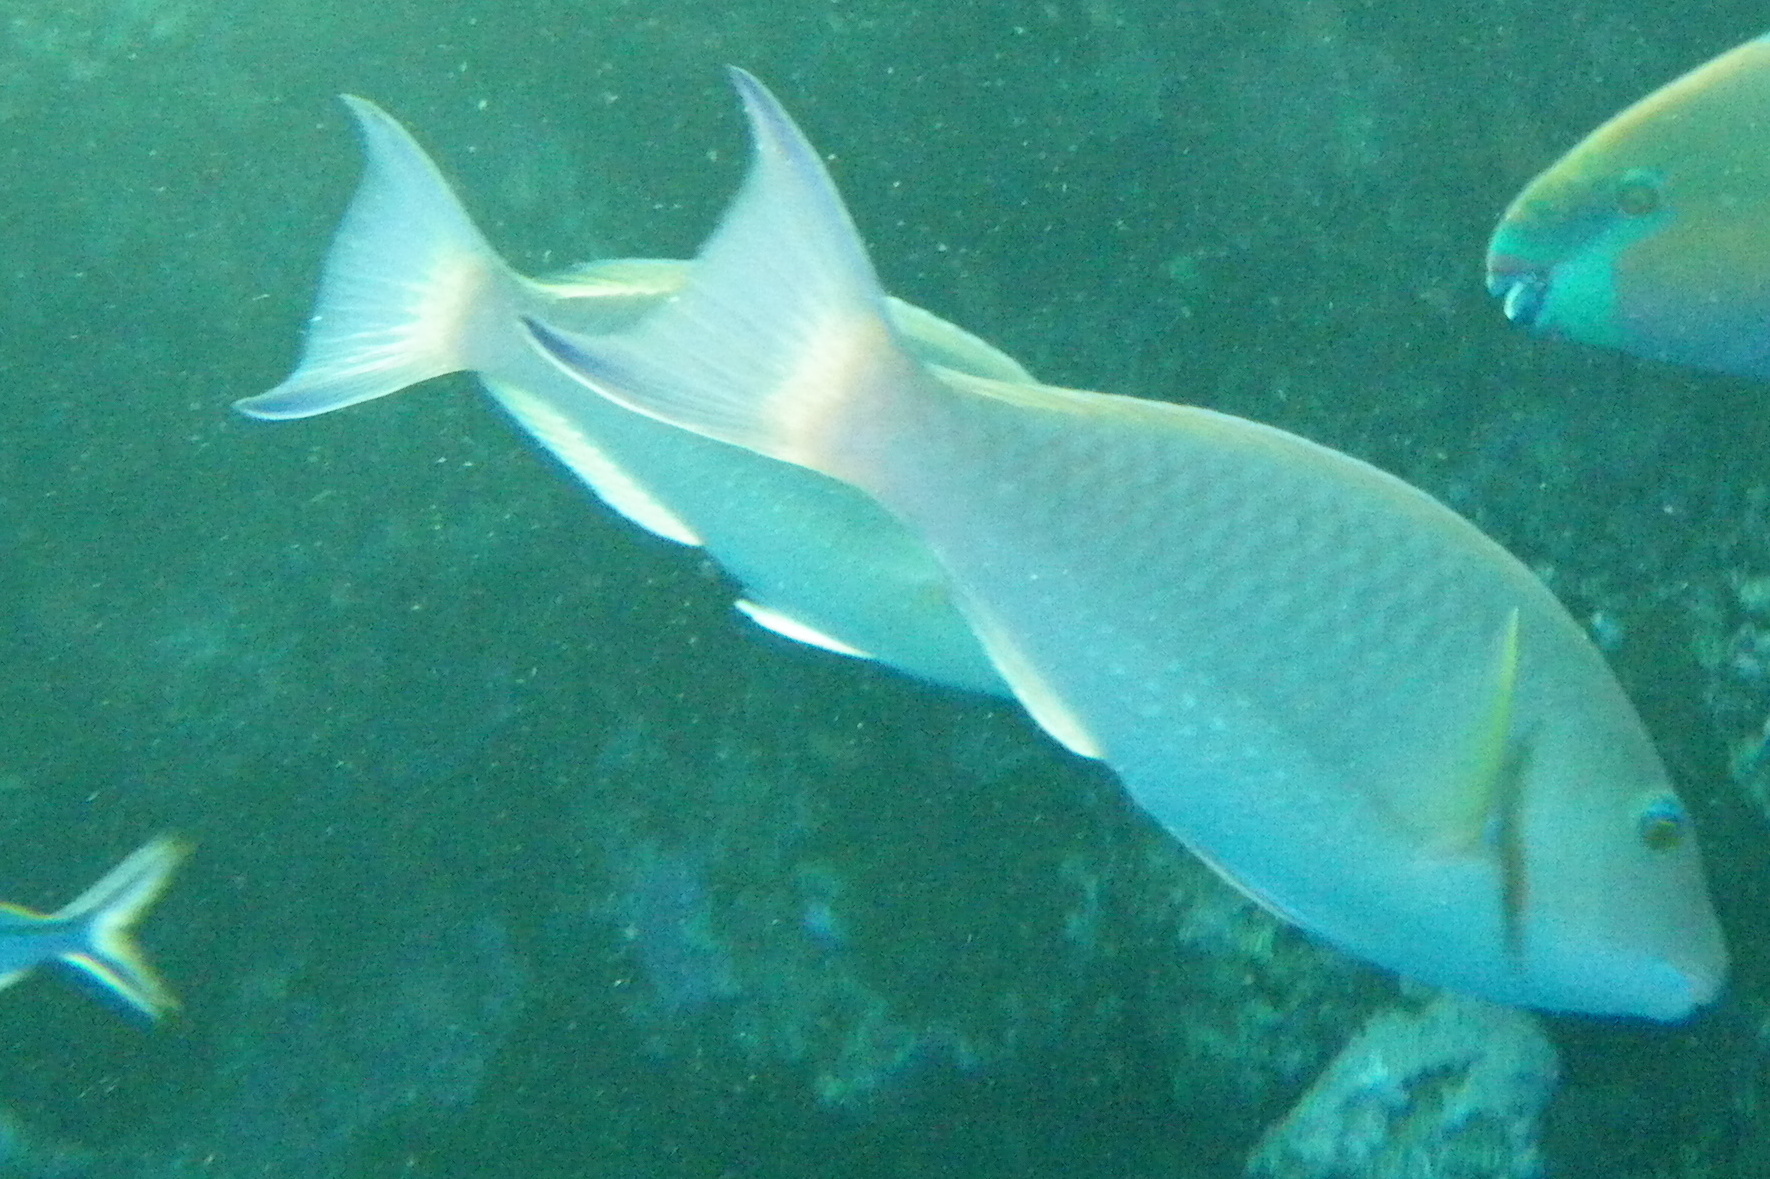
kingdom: Animalia
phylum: Chordata
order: Perciformes
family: Scaridae
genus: Hipposcarus
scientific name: Hipposcarus harid
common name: Candelamoa parrotfish
